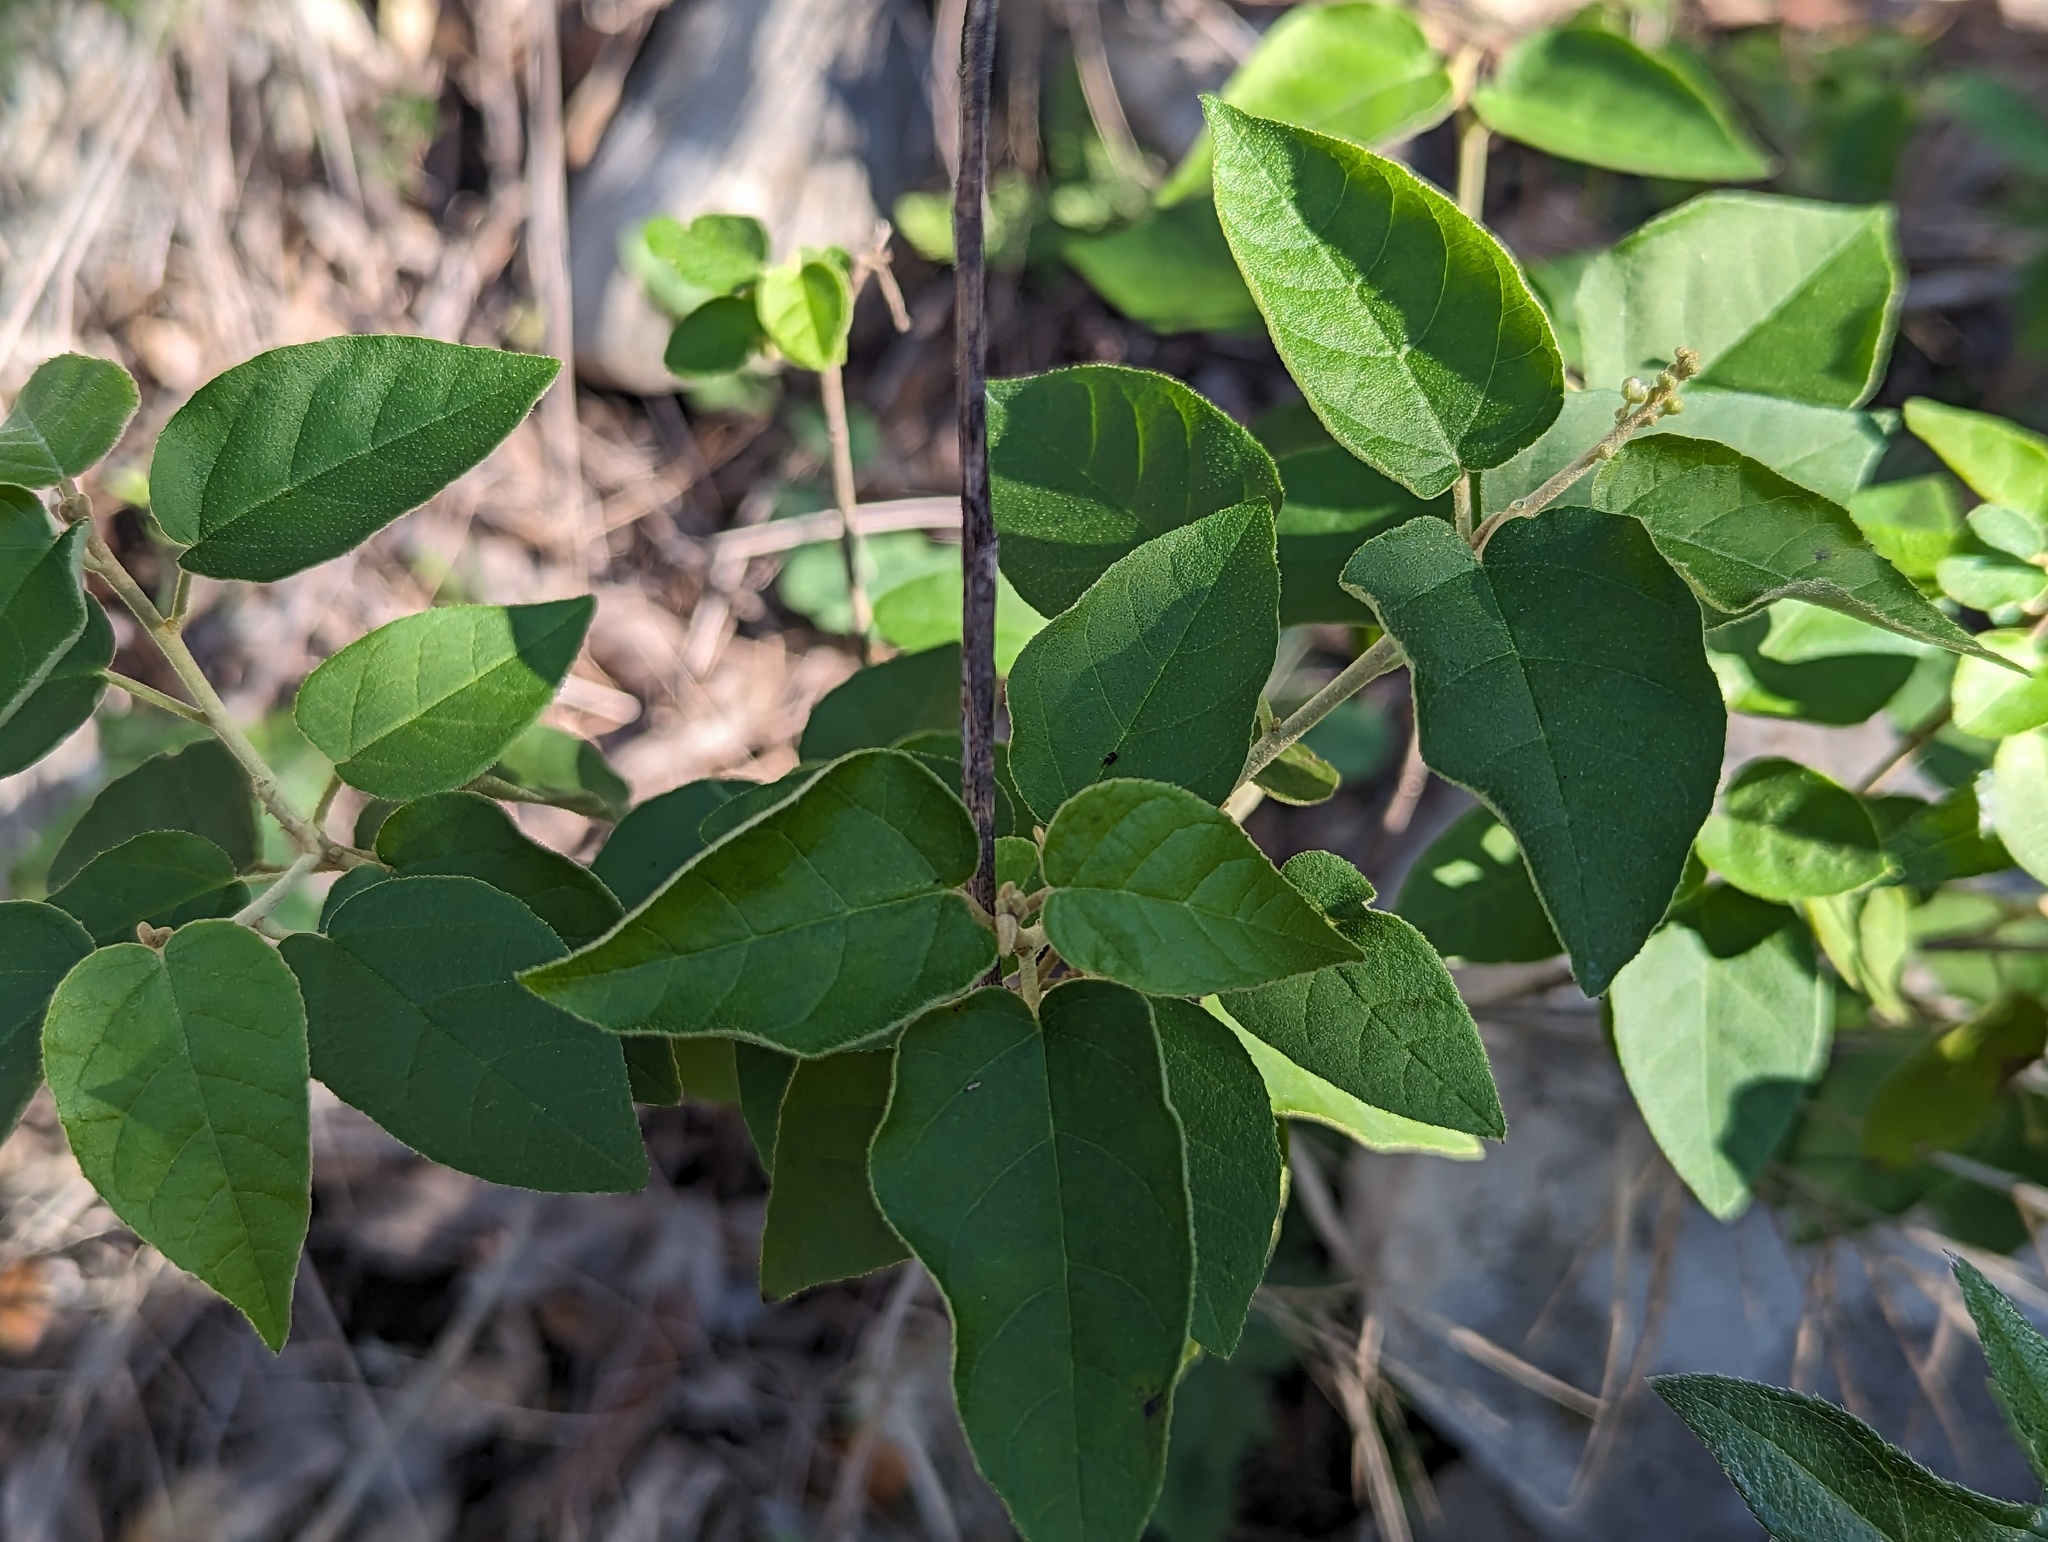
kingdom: Plantae
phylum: Tracheophyta
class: Magnoliopsida
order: Malpighiales
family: Euphorbiaceae
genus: Croton
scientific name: Croton fruticulosus
